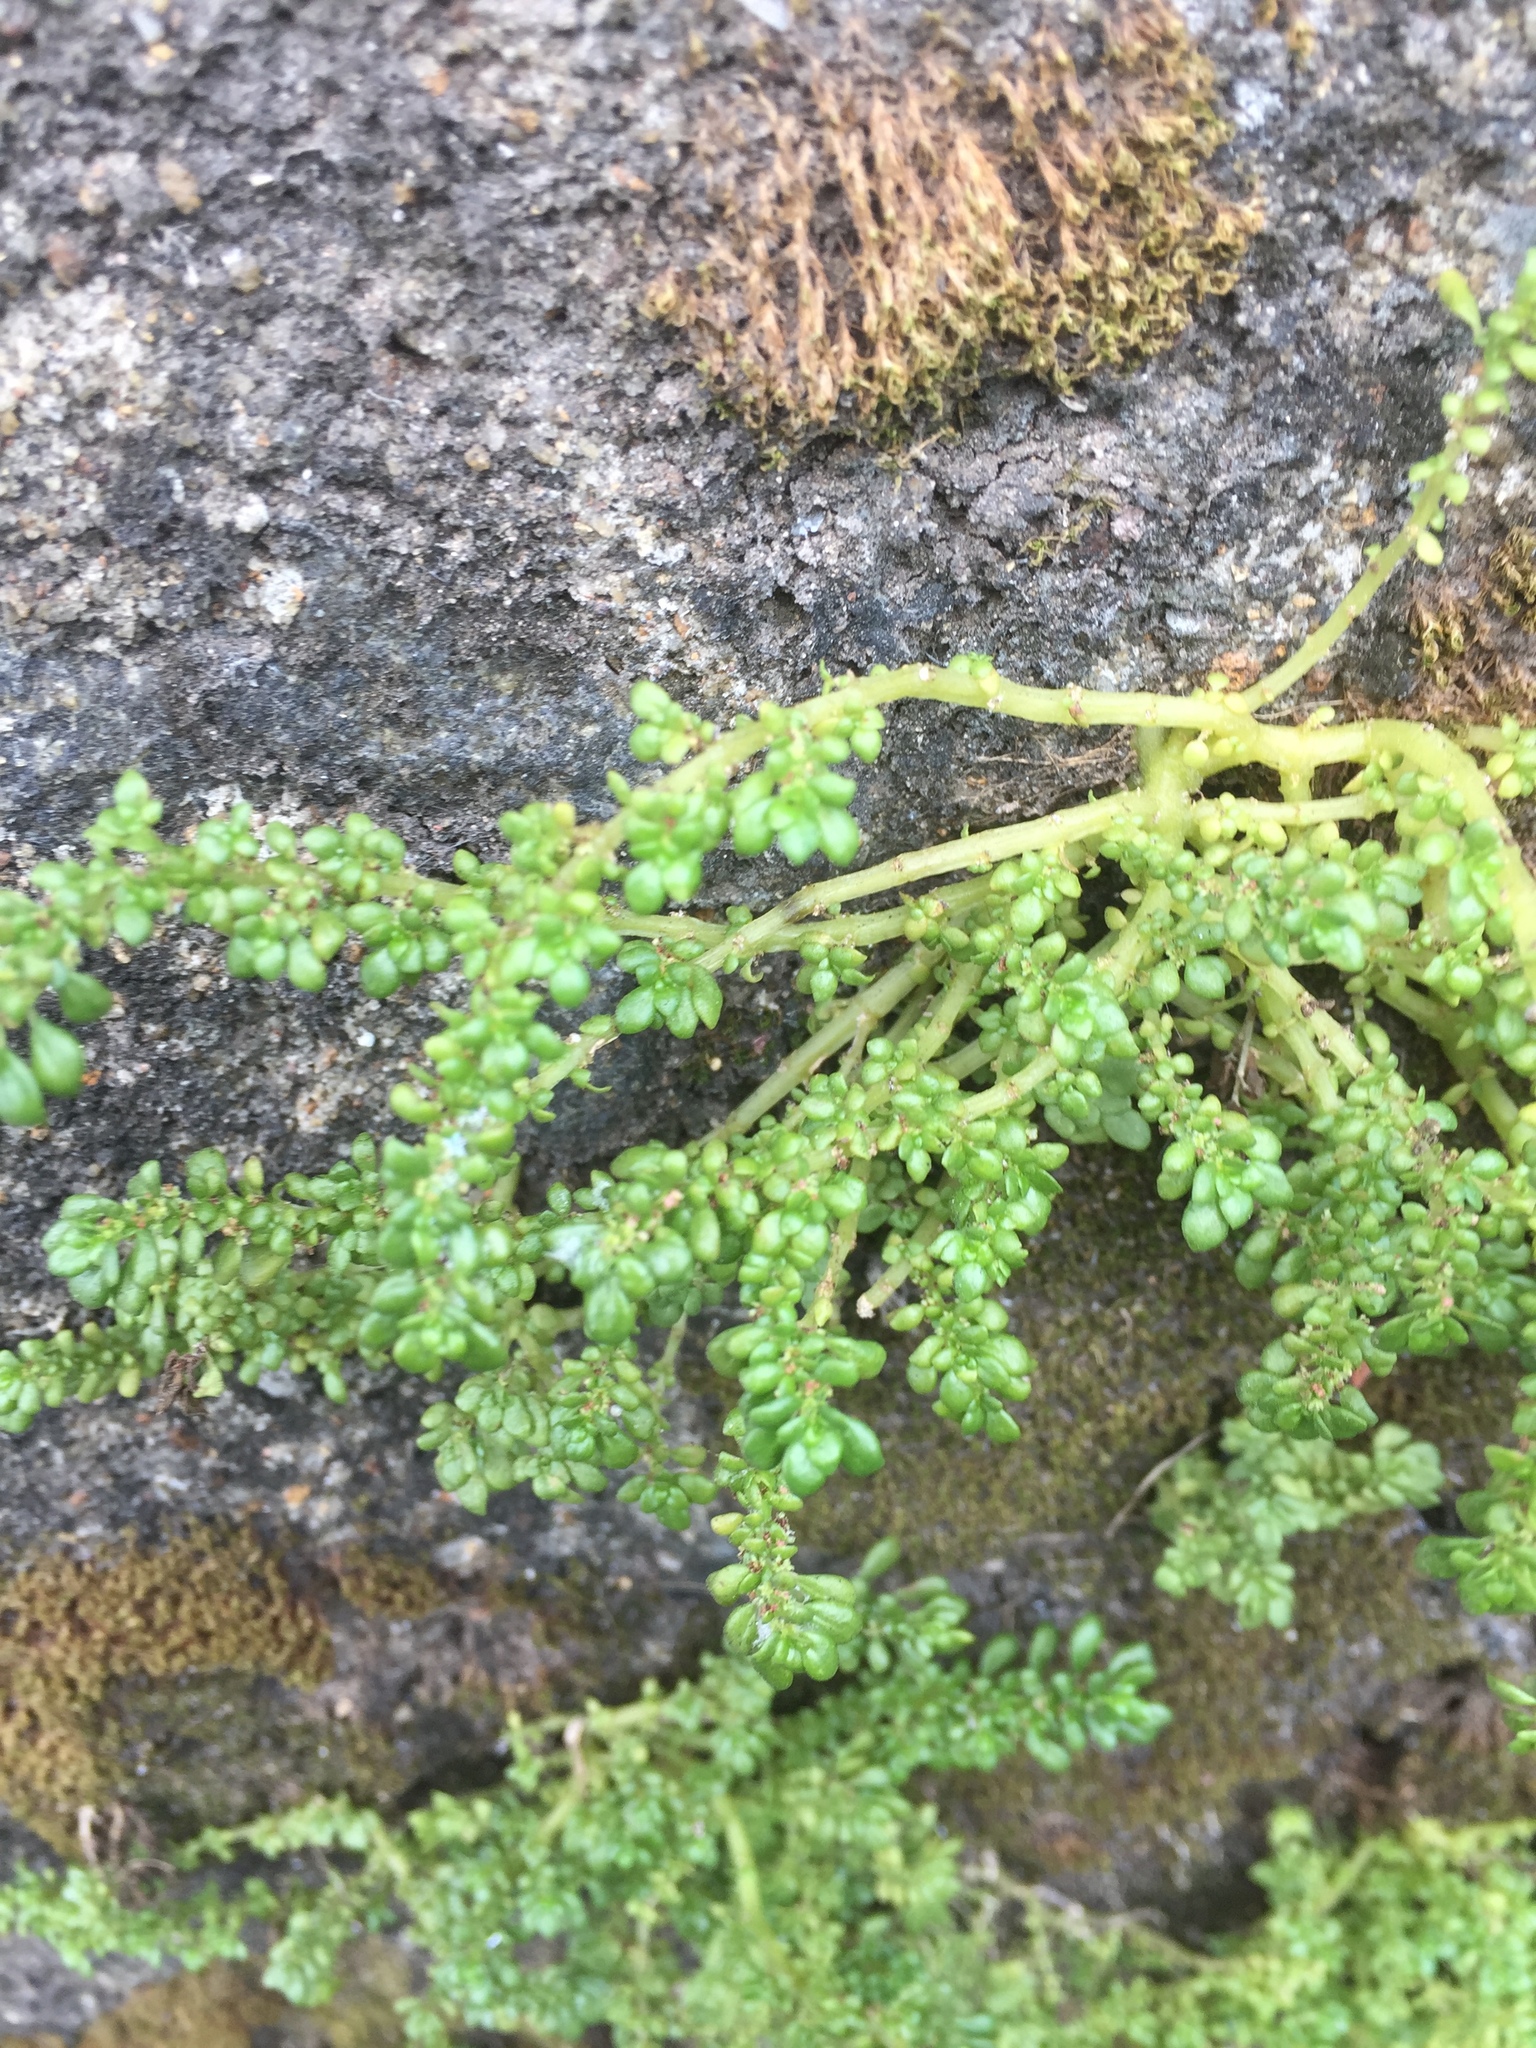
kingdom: Plantae
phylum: Tracheophyta
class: Magnoliopsida
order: Rosales
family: Urticaceae
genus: Pilea
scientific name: Pilea microphylla
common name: Artillery-plant
